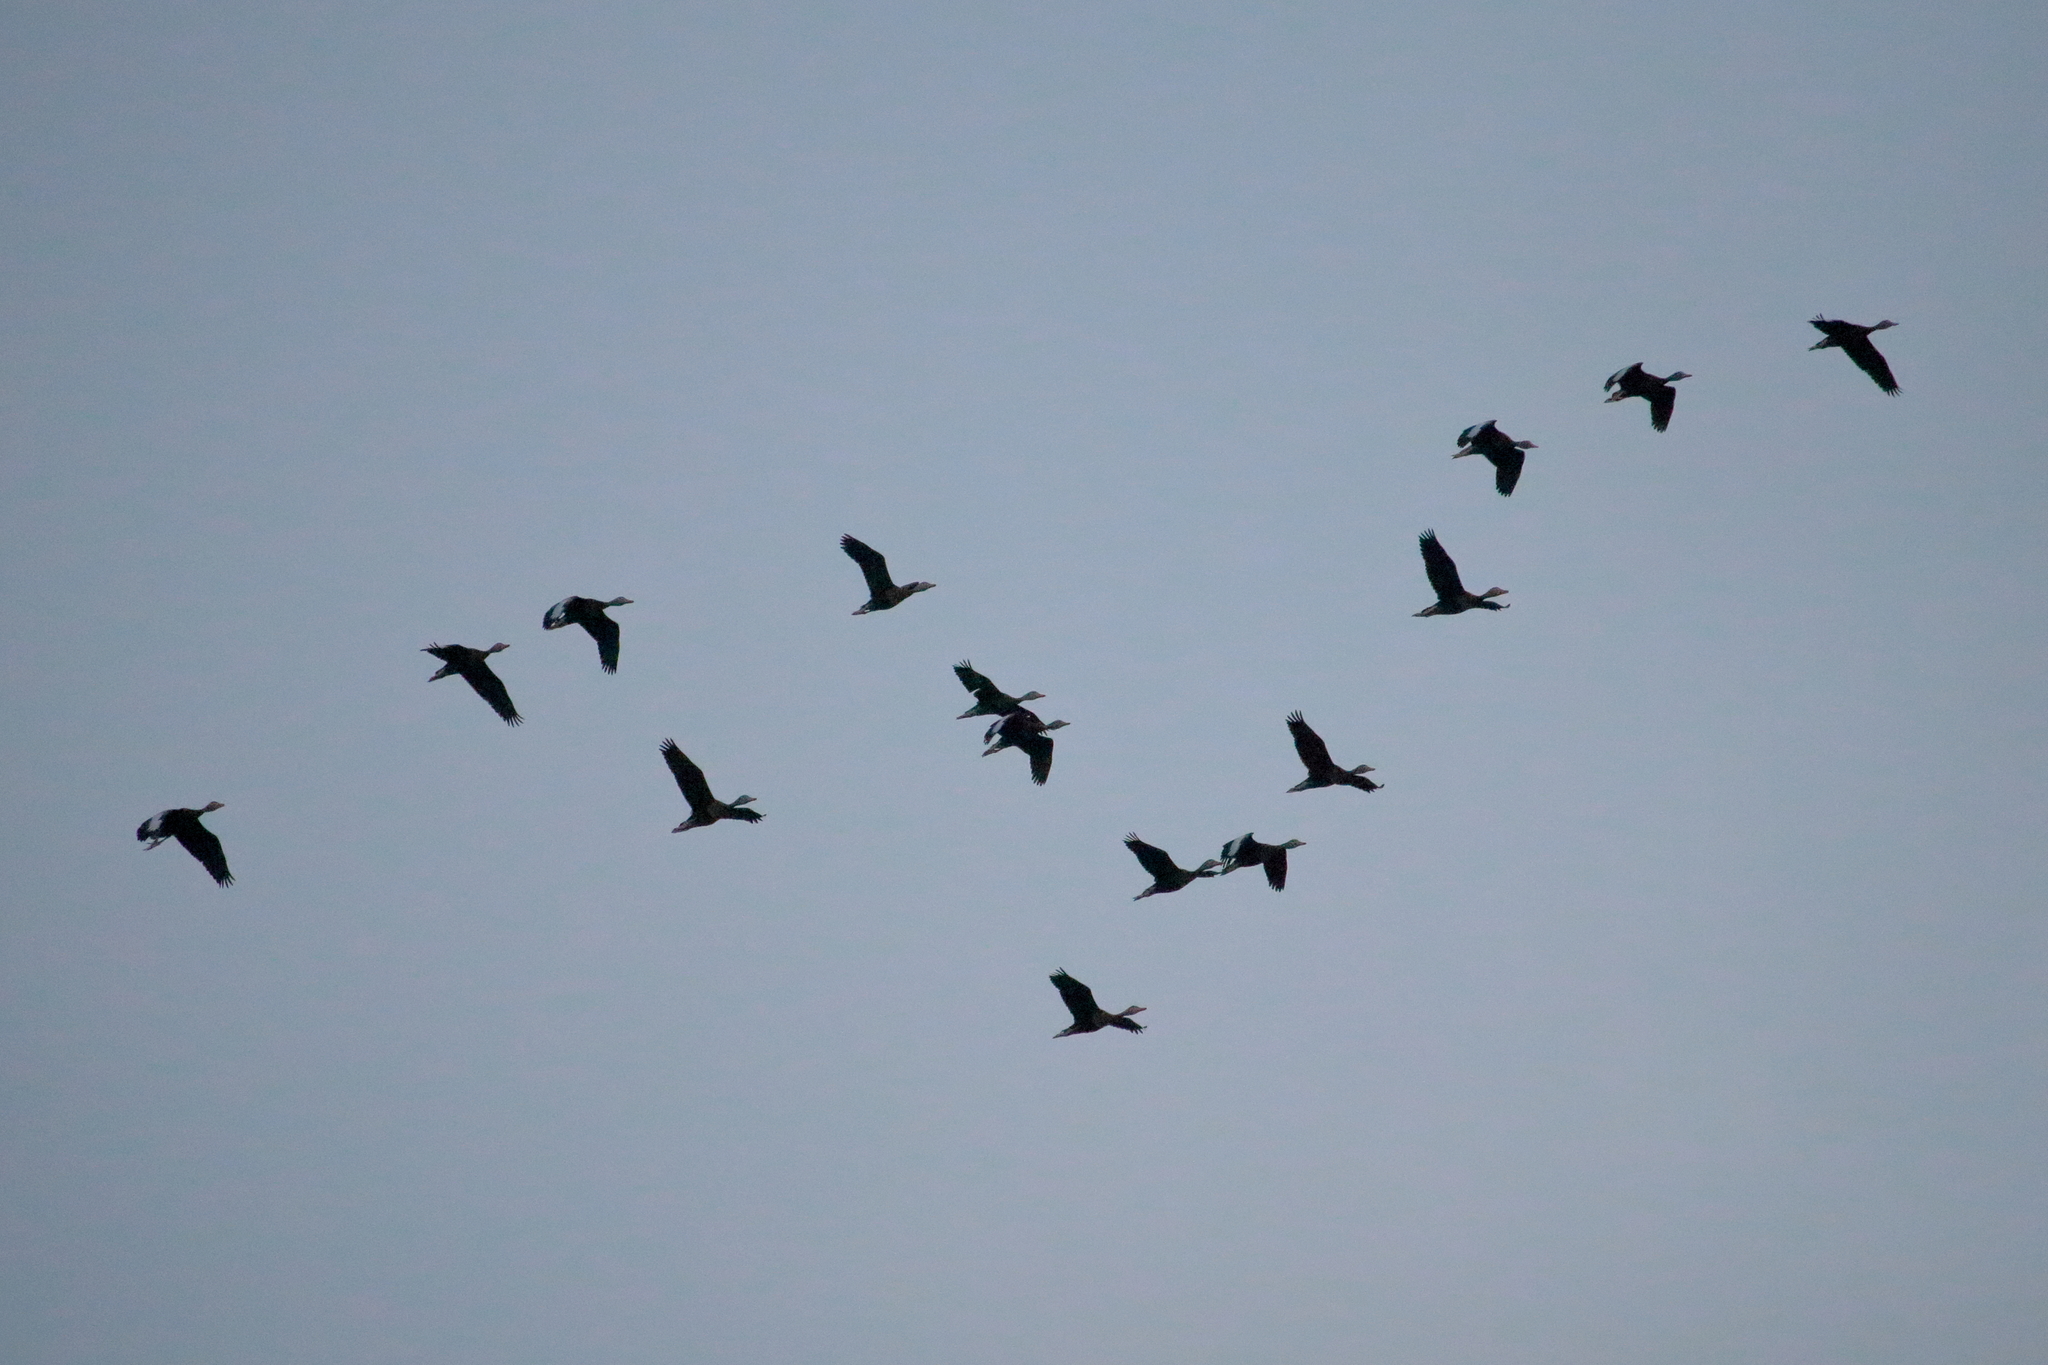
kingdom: Animalia
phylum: Chordata
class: Aves
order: Anseriformes
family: Anatidae
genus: Dendrocygna
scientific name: Dendrocygna autumnalis
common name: Black-bellied whistling duck
